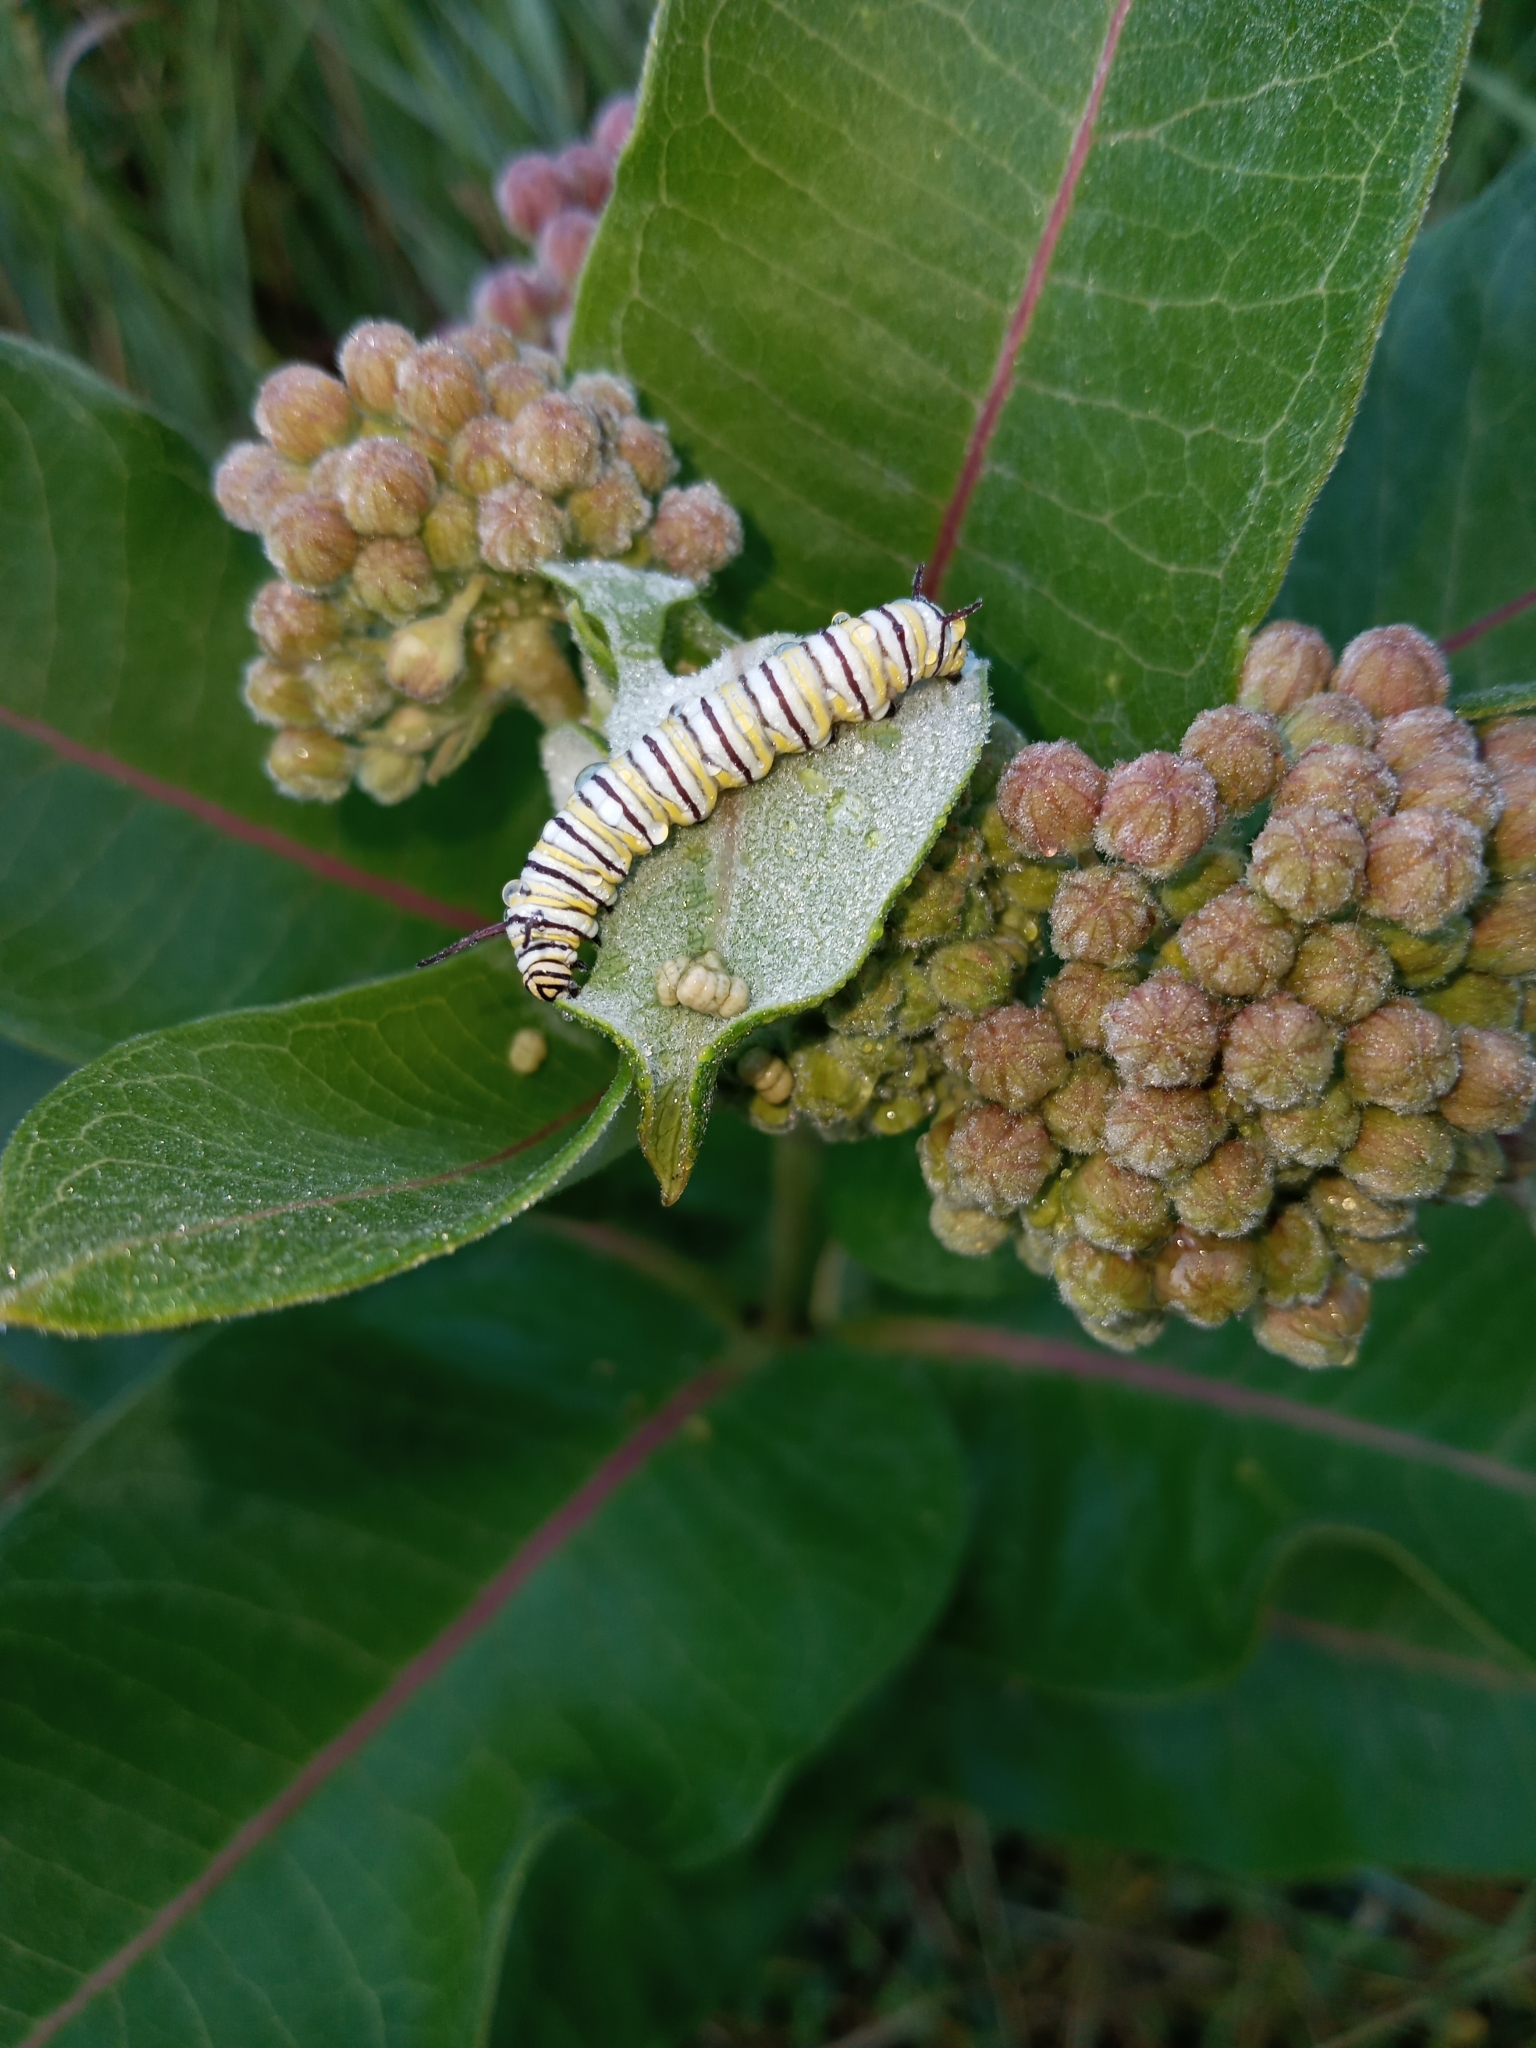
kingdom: Animalia
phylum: Arthropoda
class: Insecta
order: Lepidoptera
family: Nymphalidae
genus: Danaus
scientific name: Danaus plexippus
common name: Monarch
